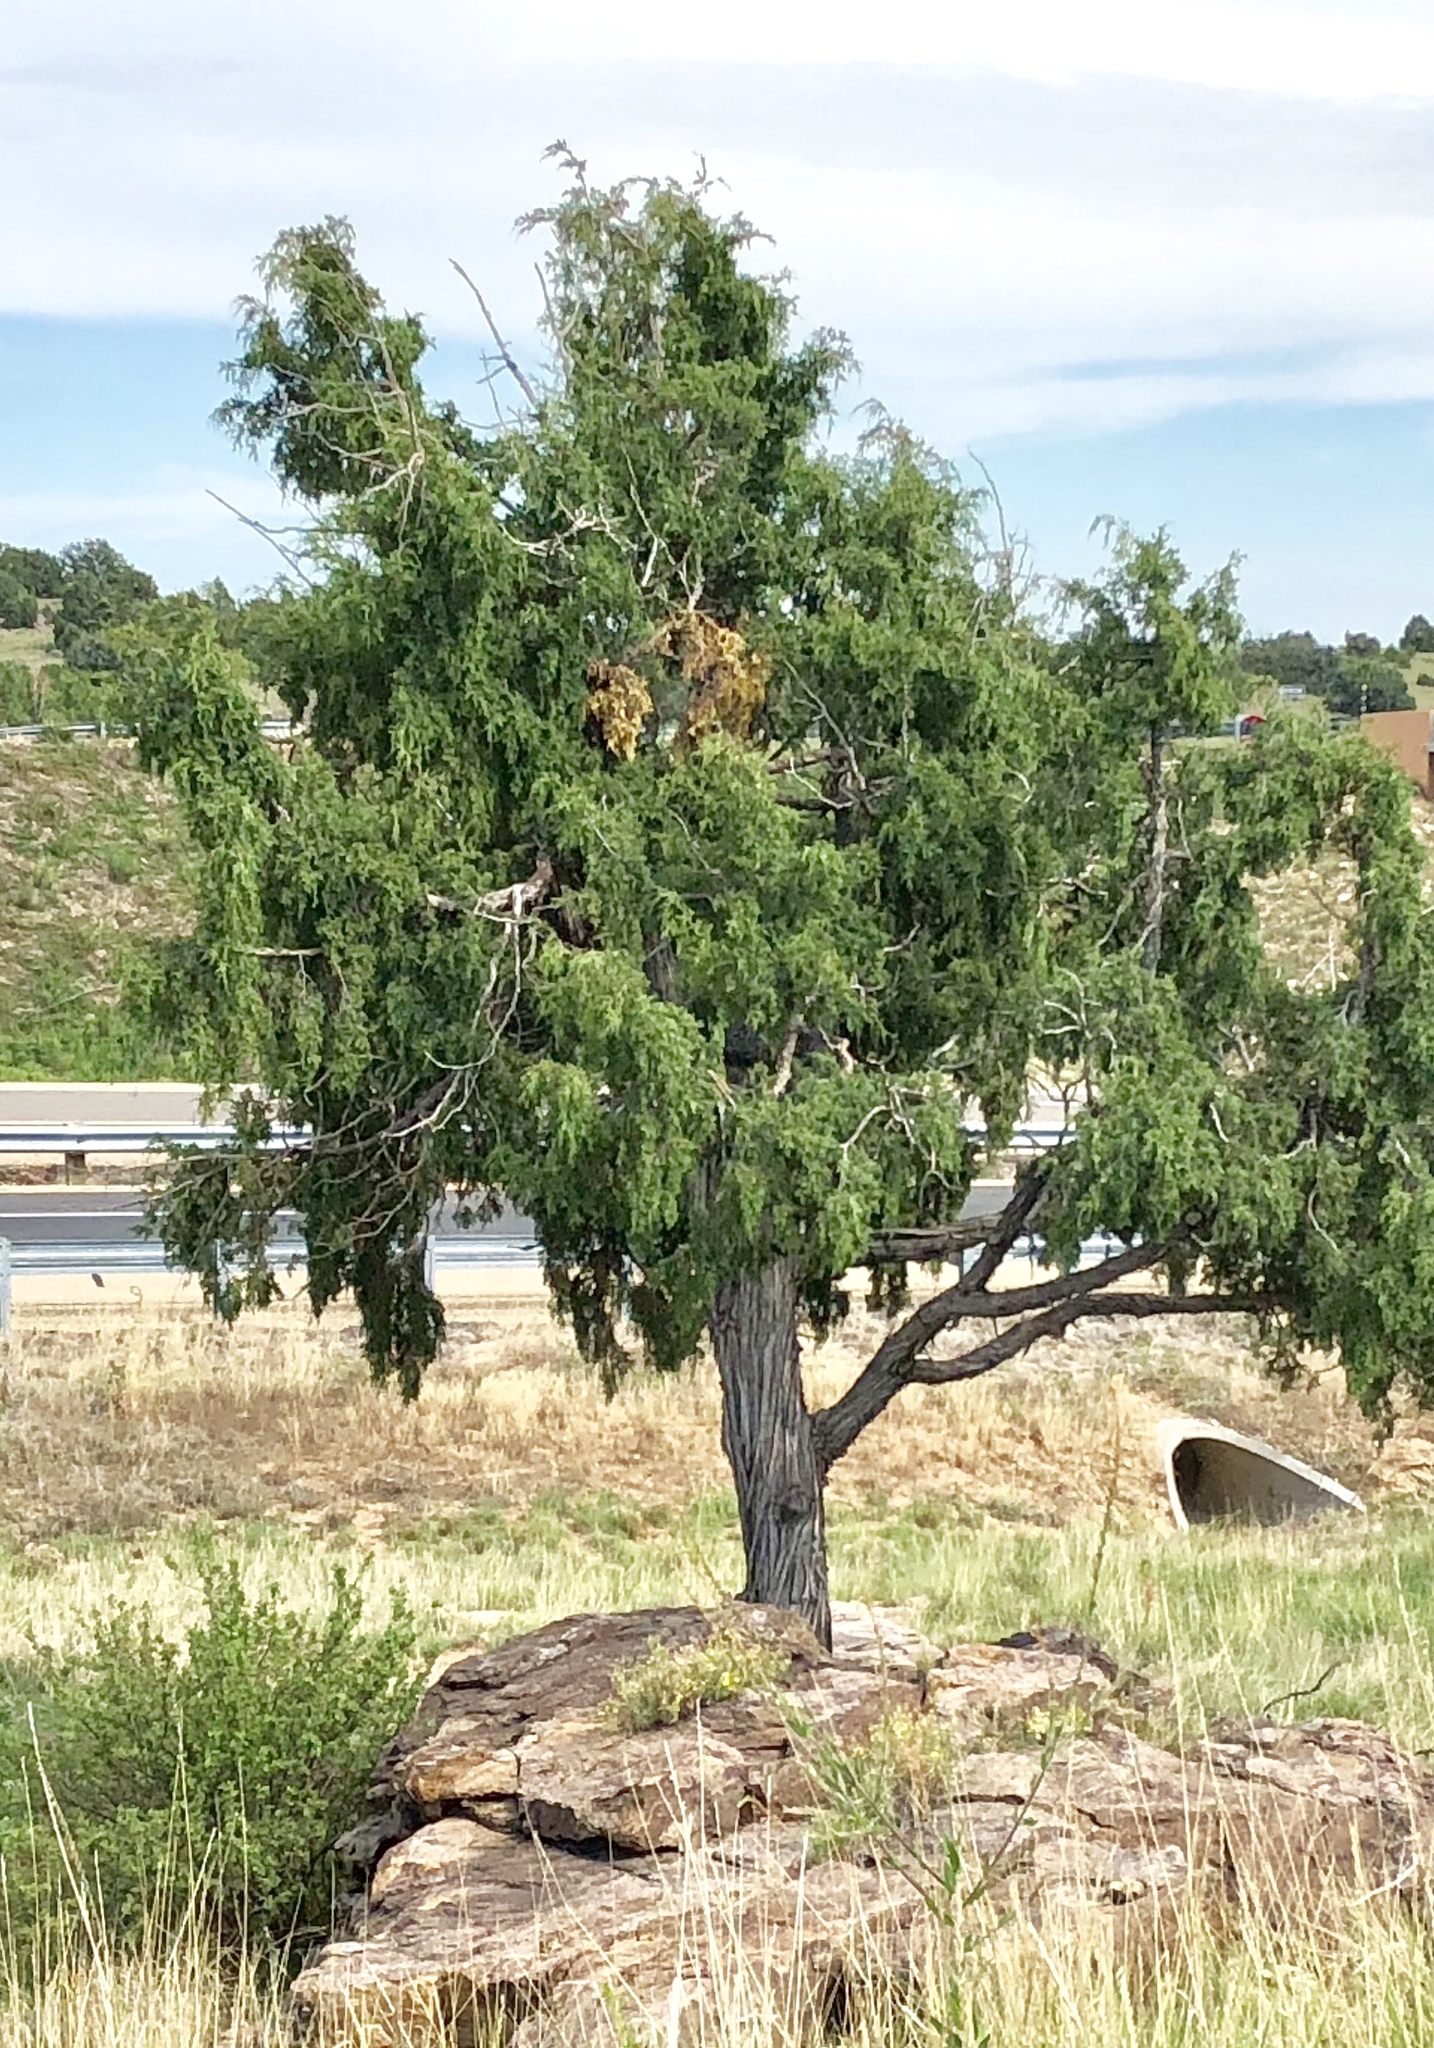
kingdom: Plantae
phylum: Tracheophyta
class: Pinopsida
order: Pinales
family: Cupressaceae
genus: Juniperus
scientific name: Juniperus monosperma
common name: One-seed juniper
